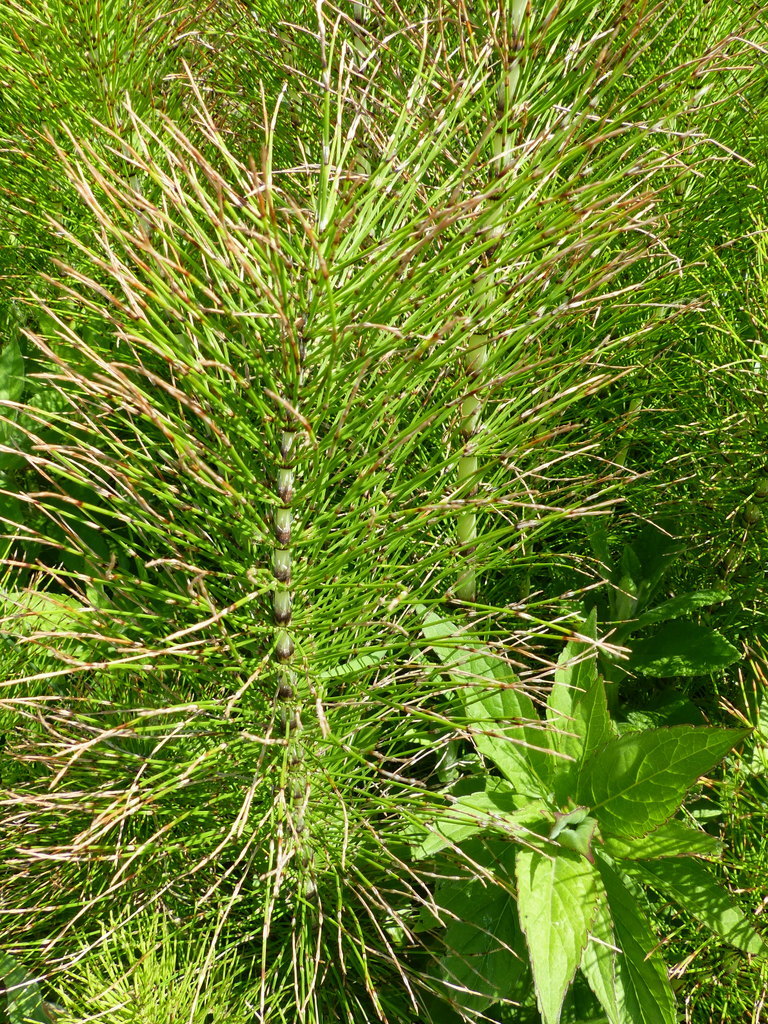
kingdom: Plantae
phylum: Tracheophyta
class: Polypodiopsida
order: Equisetales
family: Equisetaceae
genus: Equisetum
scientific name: Equisetum telmateia
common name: Great horsetail
